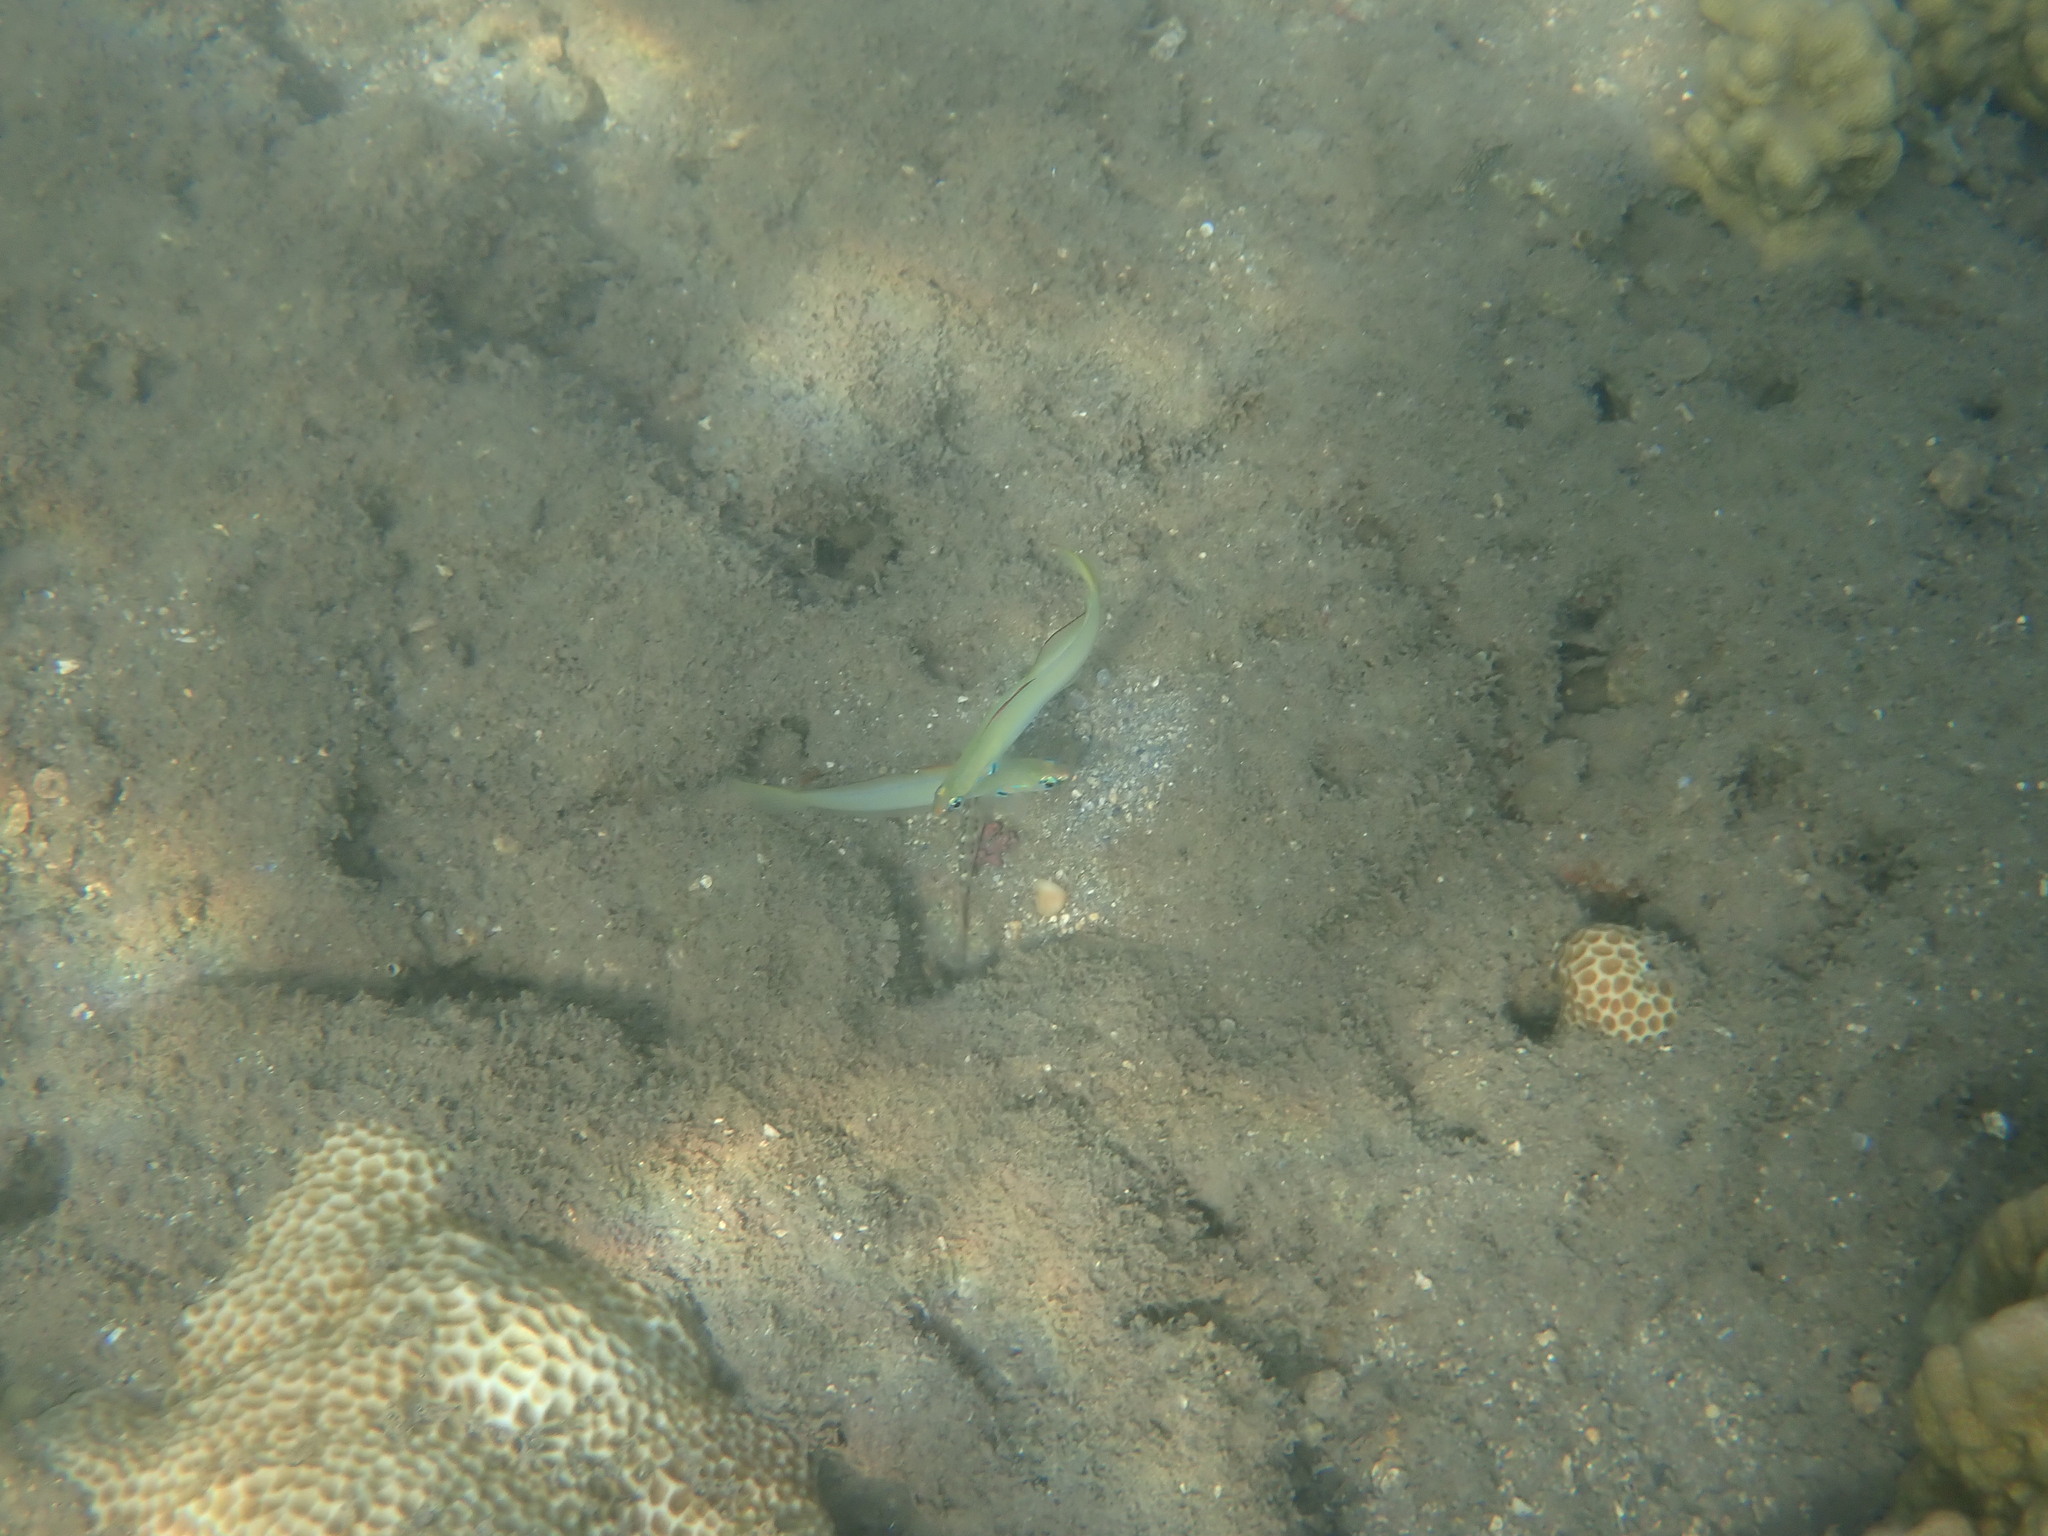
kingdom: Animalia
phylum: Chordata
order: Perciformes
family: Microdesmidae
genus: Ptereleotris
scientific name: Ptereleotris microlepis
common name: Blue gudgeon
